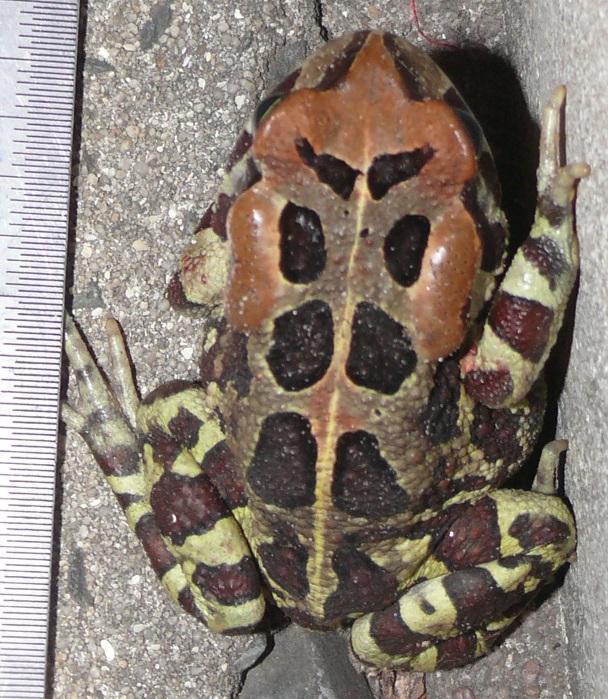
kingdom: Animalia
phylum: Chordata
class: Amphibia
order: Anura
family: Bufonidae
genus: Sclerophrys
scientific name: Sclerophrys pantherina
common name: Panther toad
